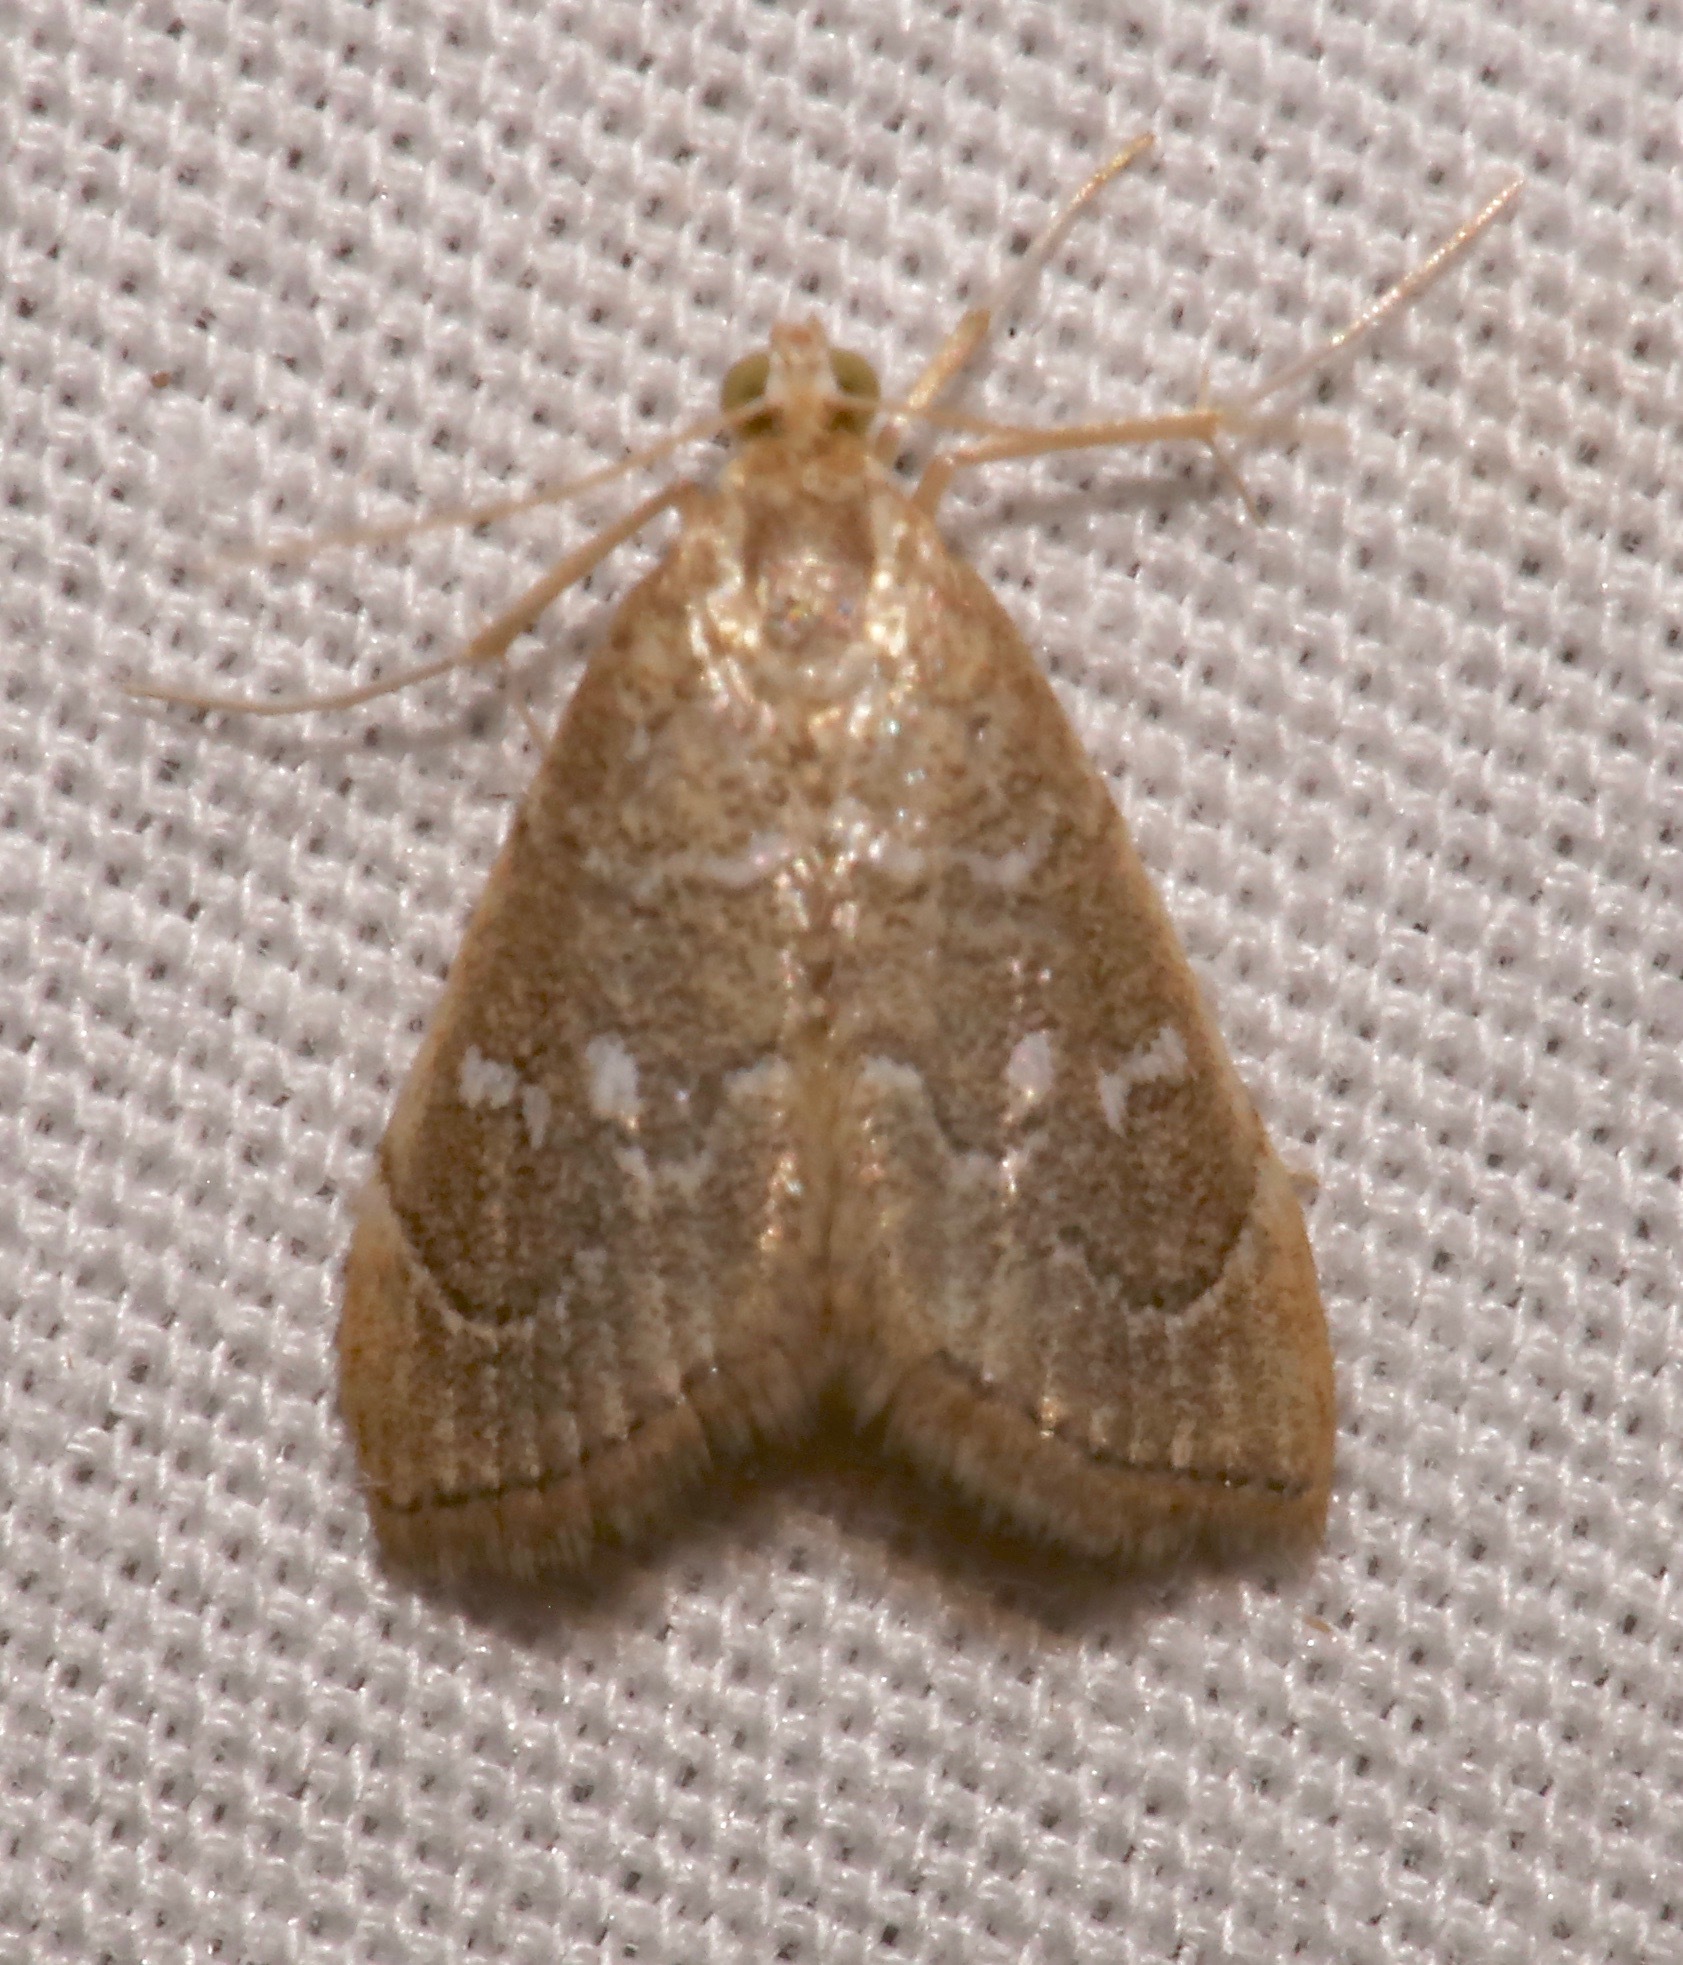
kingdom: Animalia
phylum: Arthropoda
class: Insecta
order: Lepidoptera
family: Crambidae
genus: Nephrogramma
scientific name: Nephrogramma reniculalis
